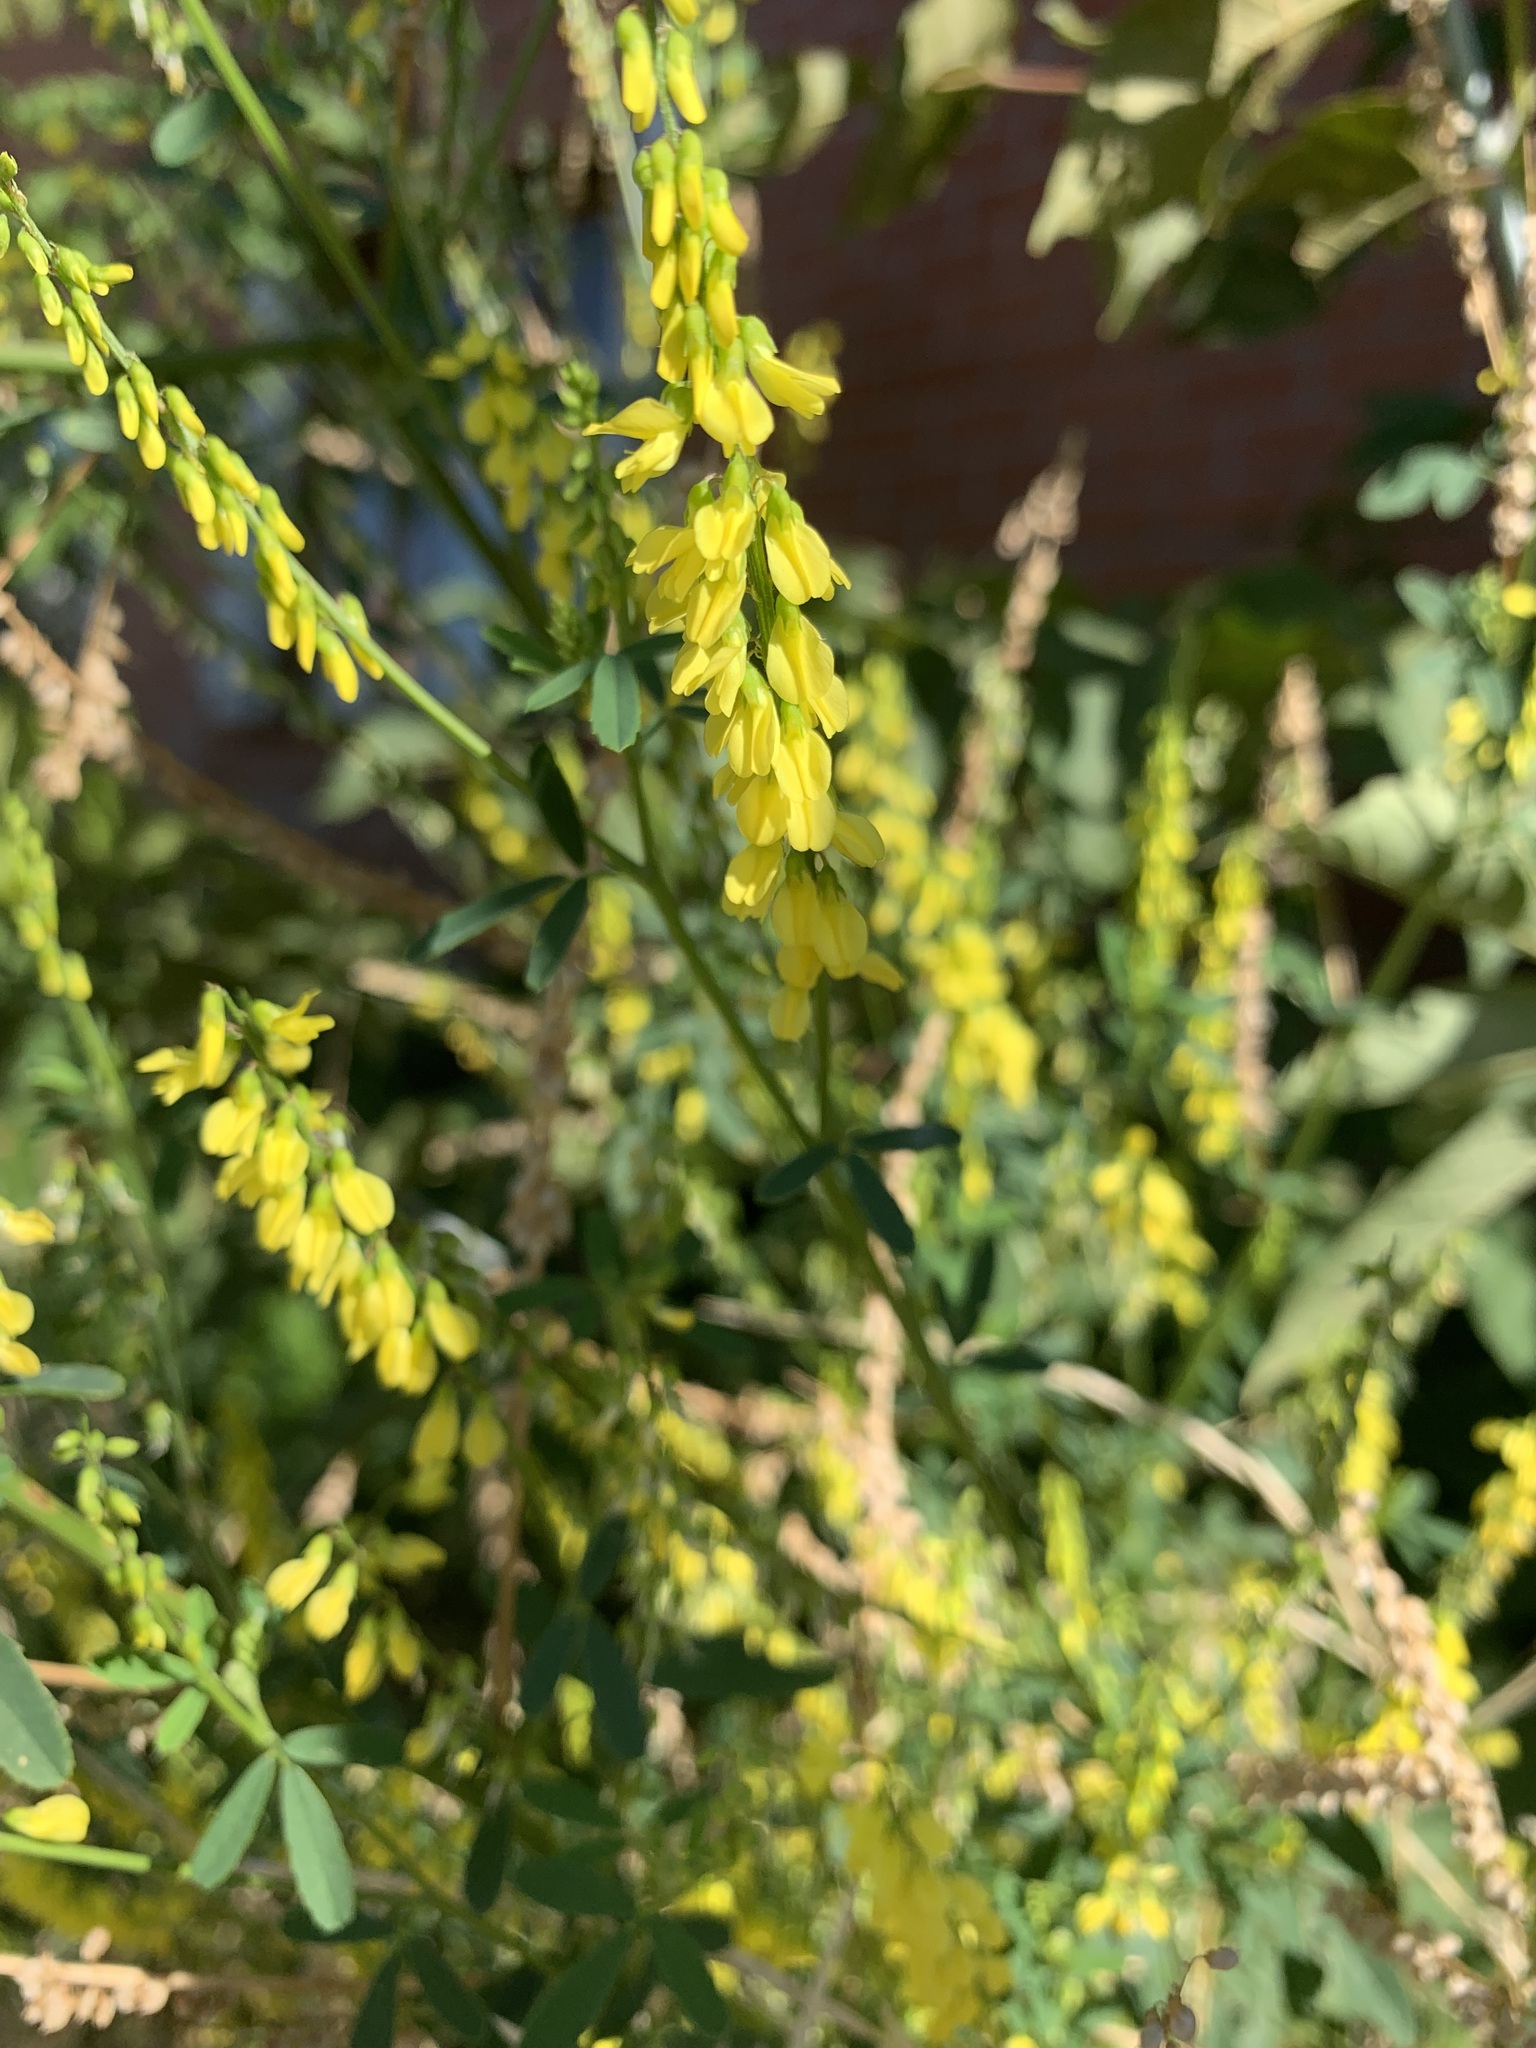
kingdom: Plantae
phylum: Tracheophyta
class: Magnoliopsida
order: Fabales
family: Fabaceae
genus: Melilotus
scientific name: Melilotus officinalis
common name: Sweetclover
